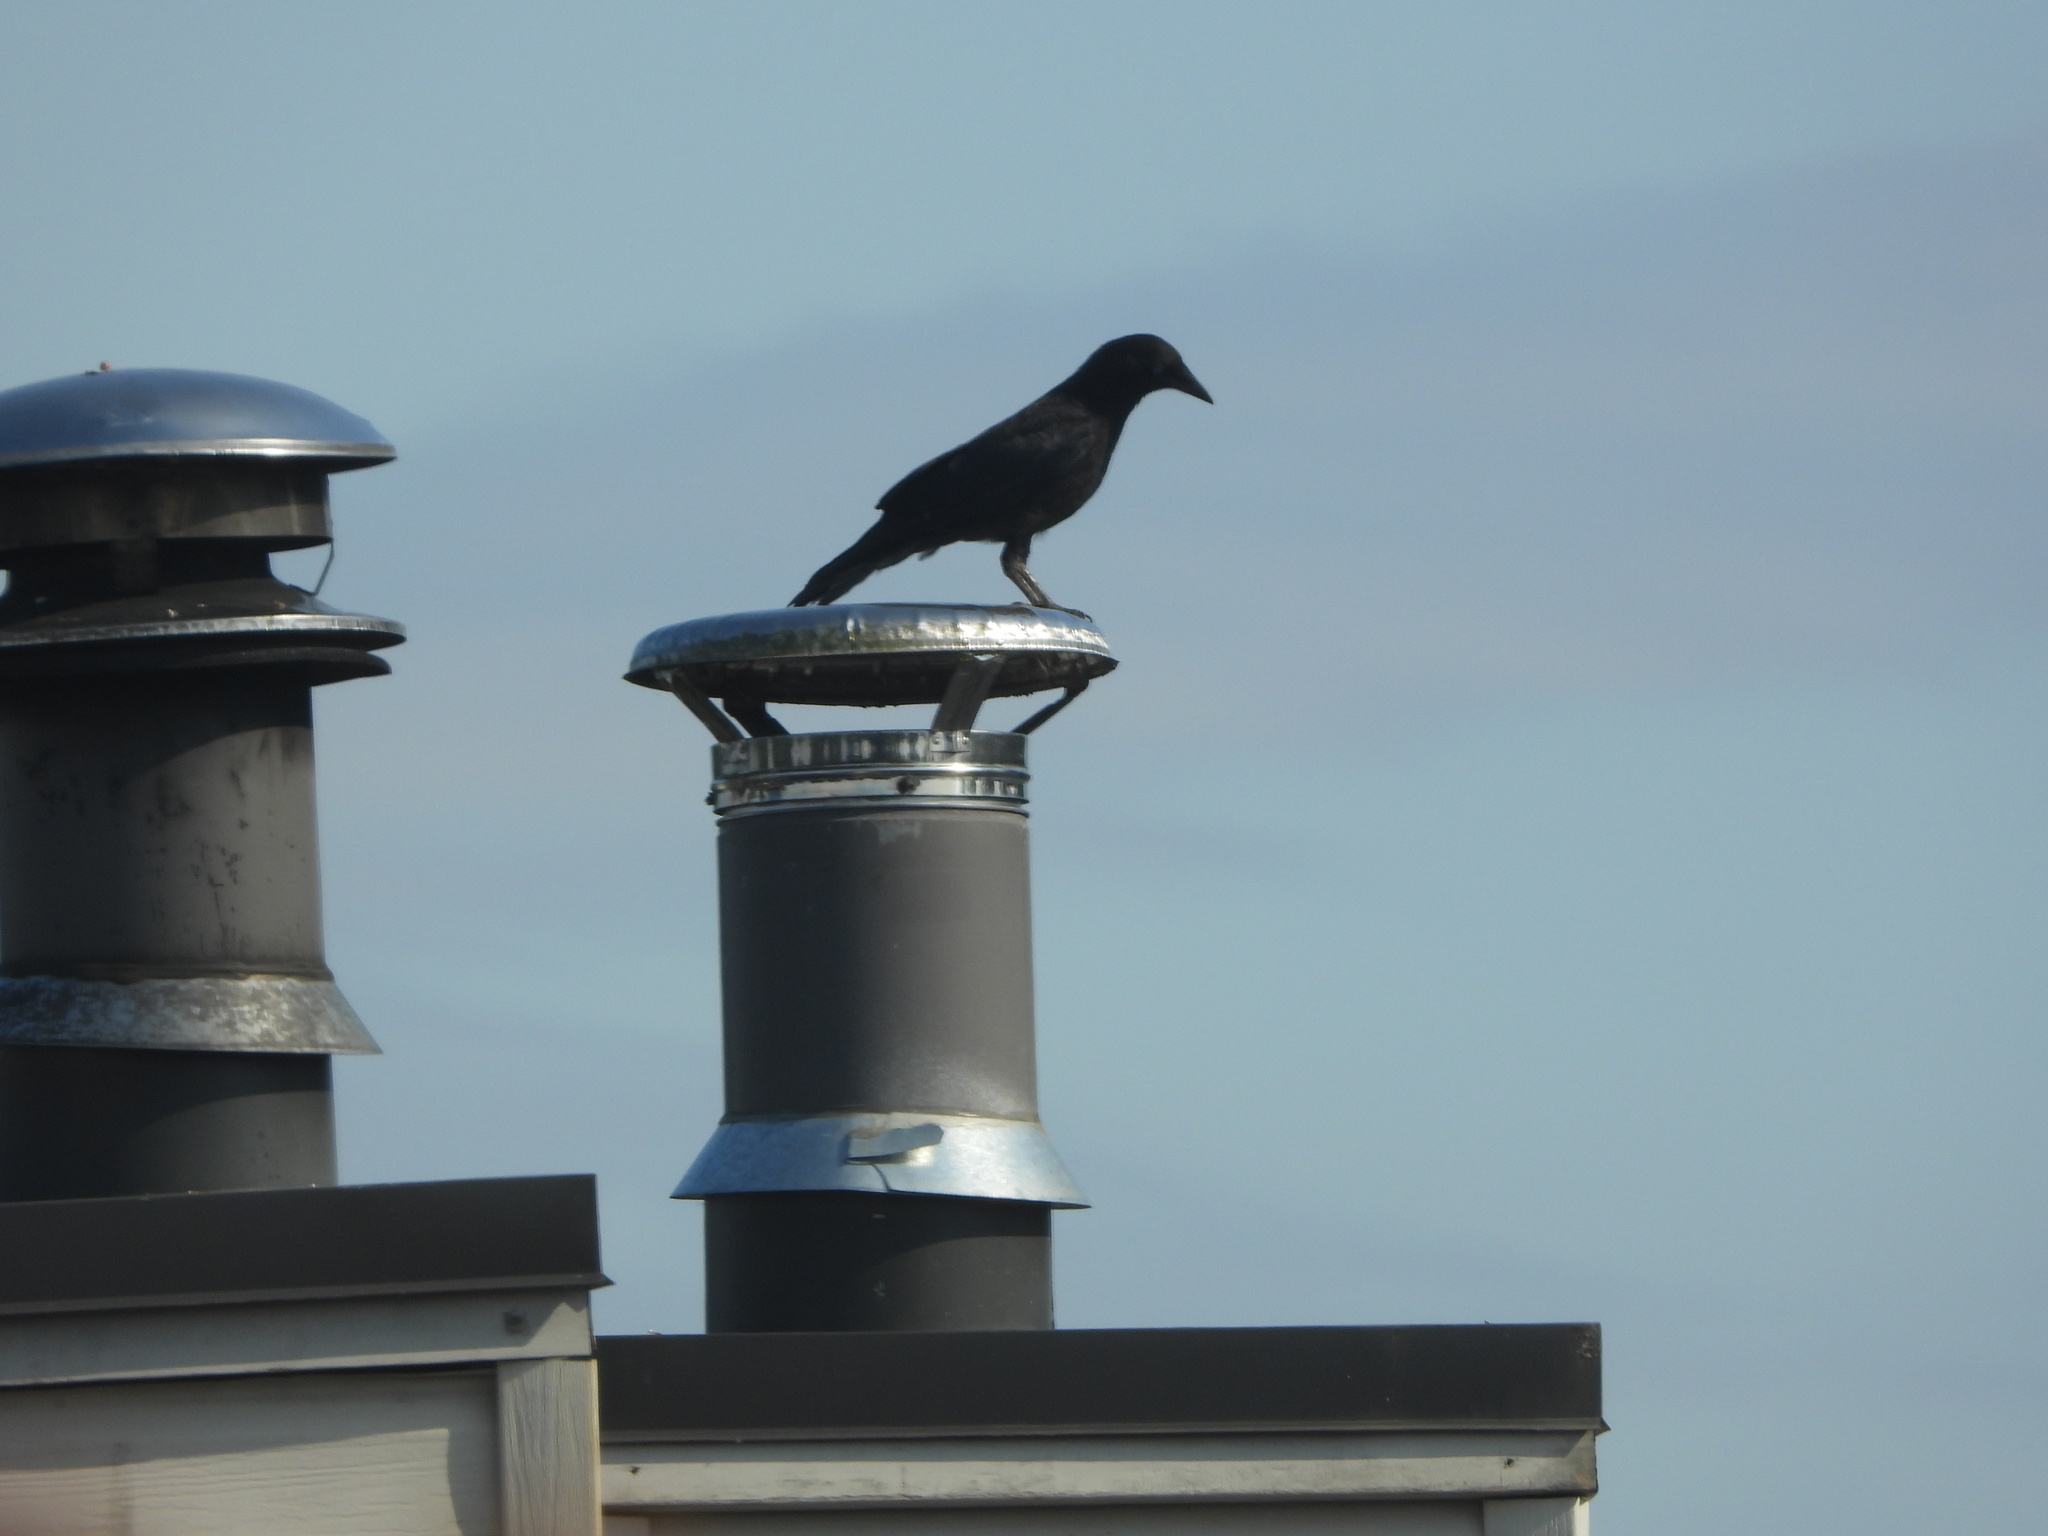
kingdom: Animalia
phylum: Chordata
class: Aves
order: Passeriformes
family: Corvidae
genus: Corvus
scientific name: Corvus brachyrhynchos
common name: American crow
